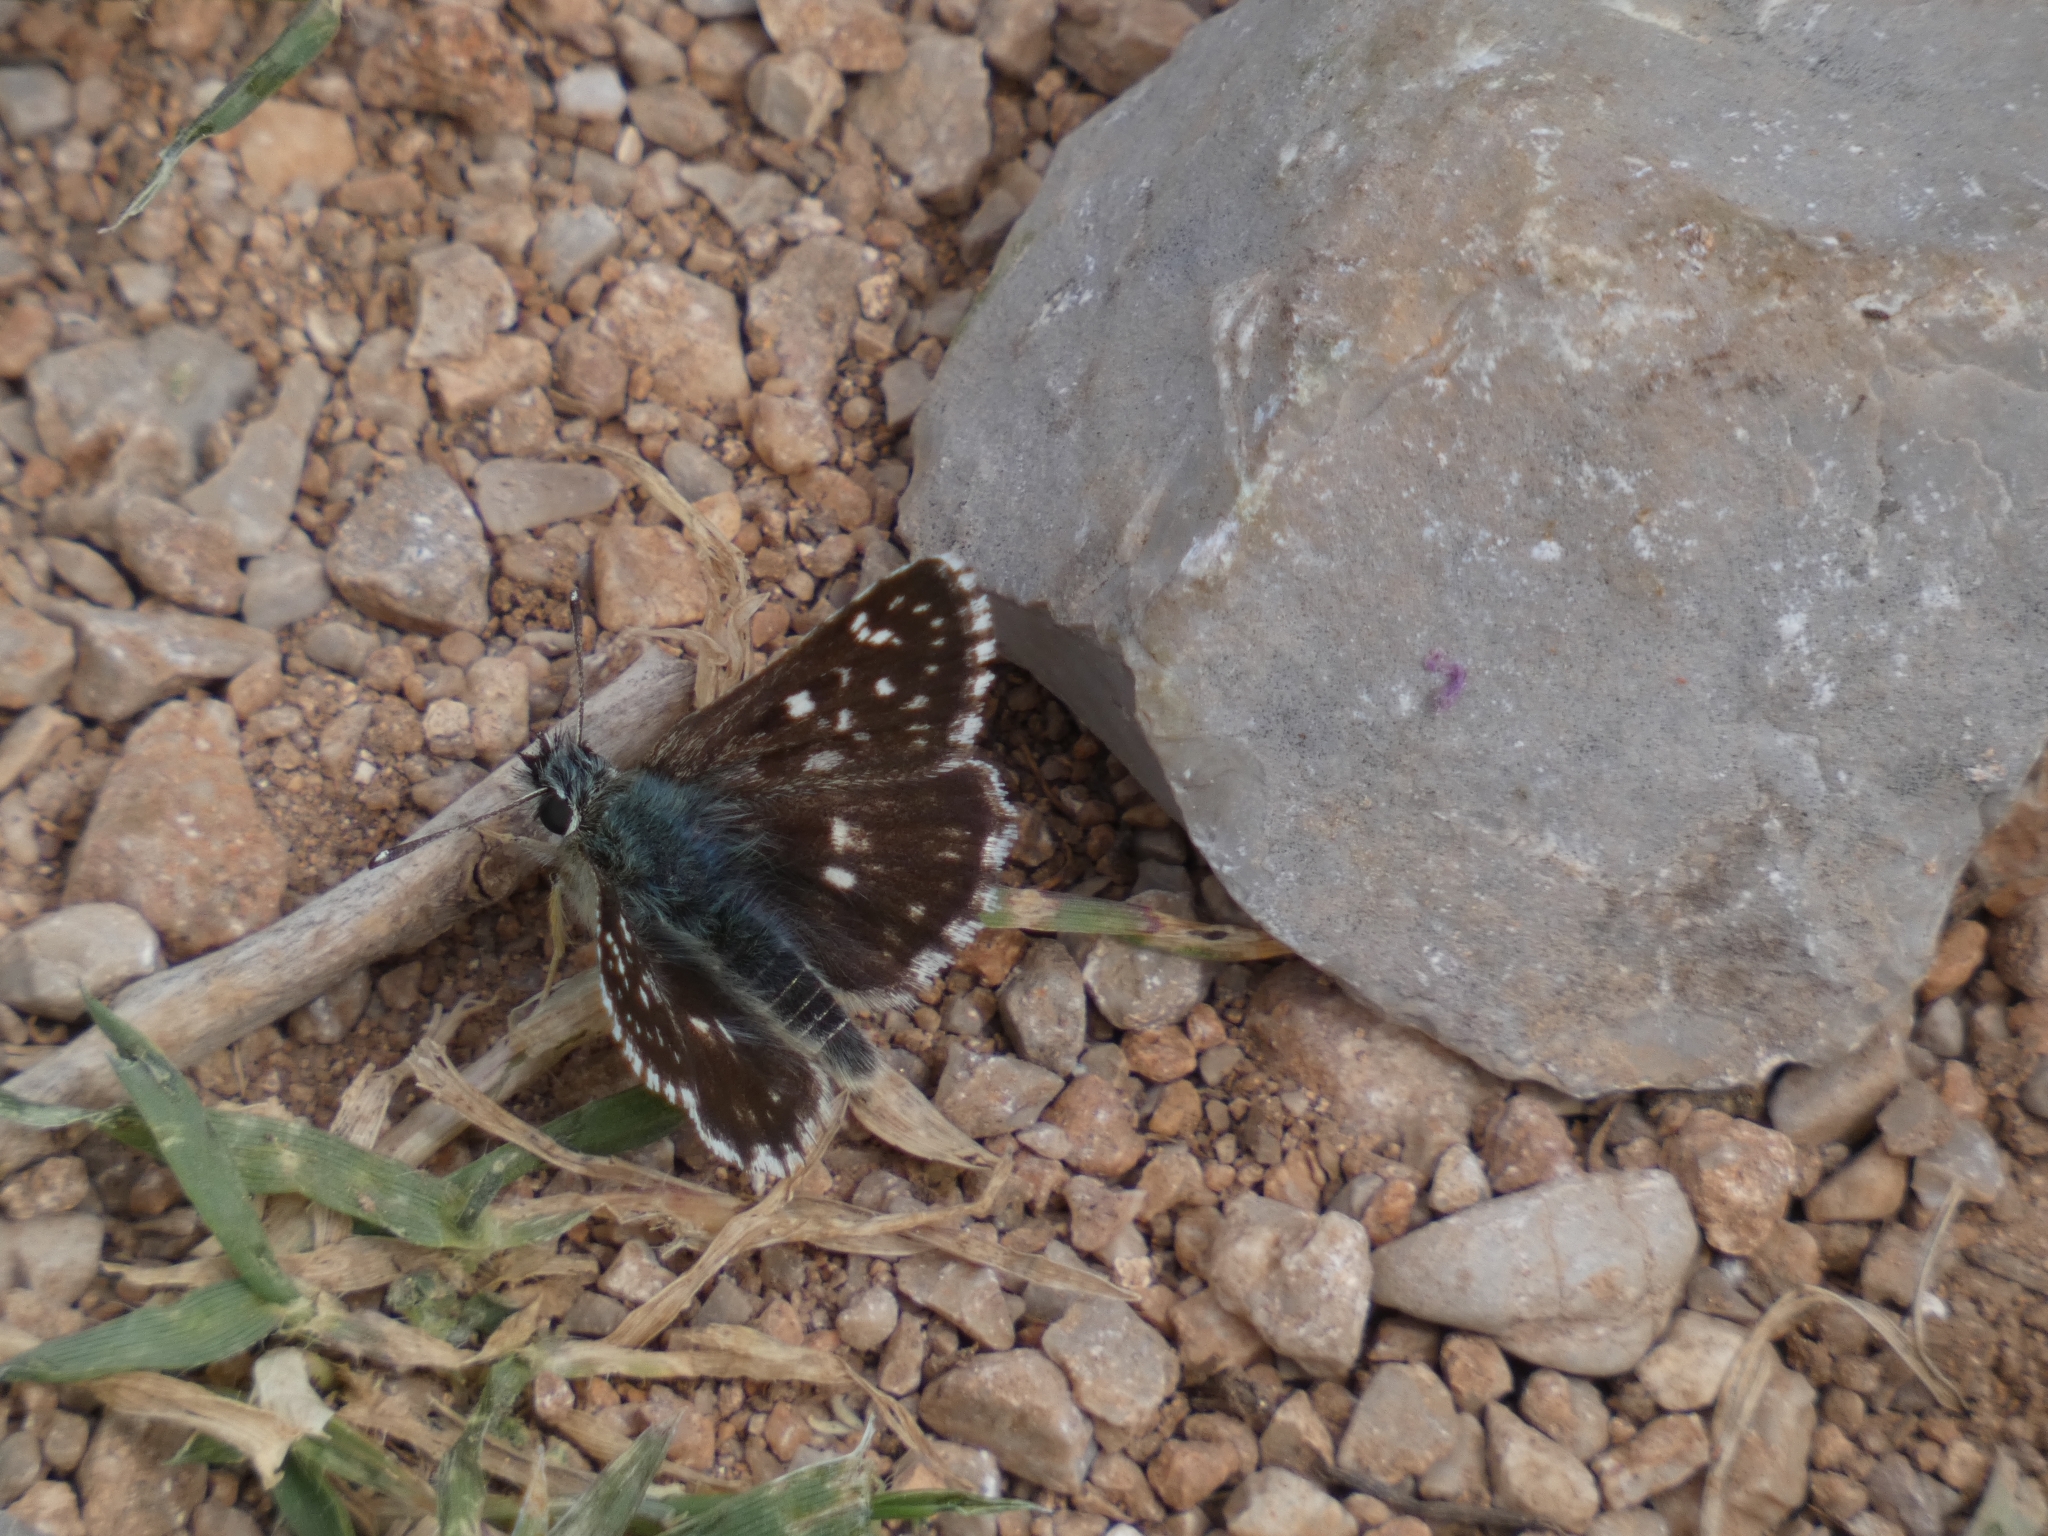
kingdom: Animalia
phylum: Arthropoda
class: Insecta
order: Lepidoptera
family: Hesperiidae
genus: Spialia
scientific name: Spialia sertorius
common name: Red underwing skipper
